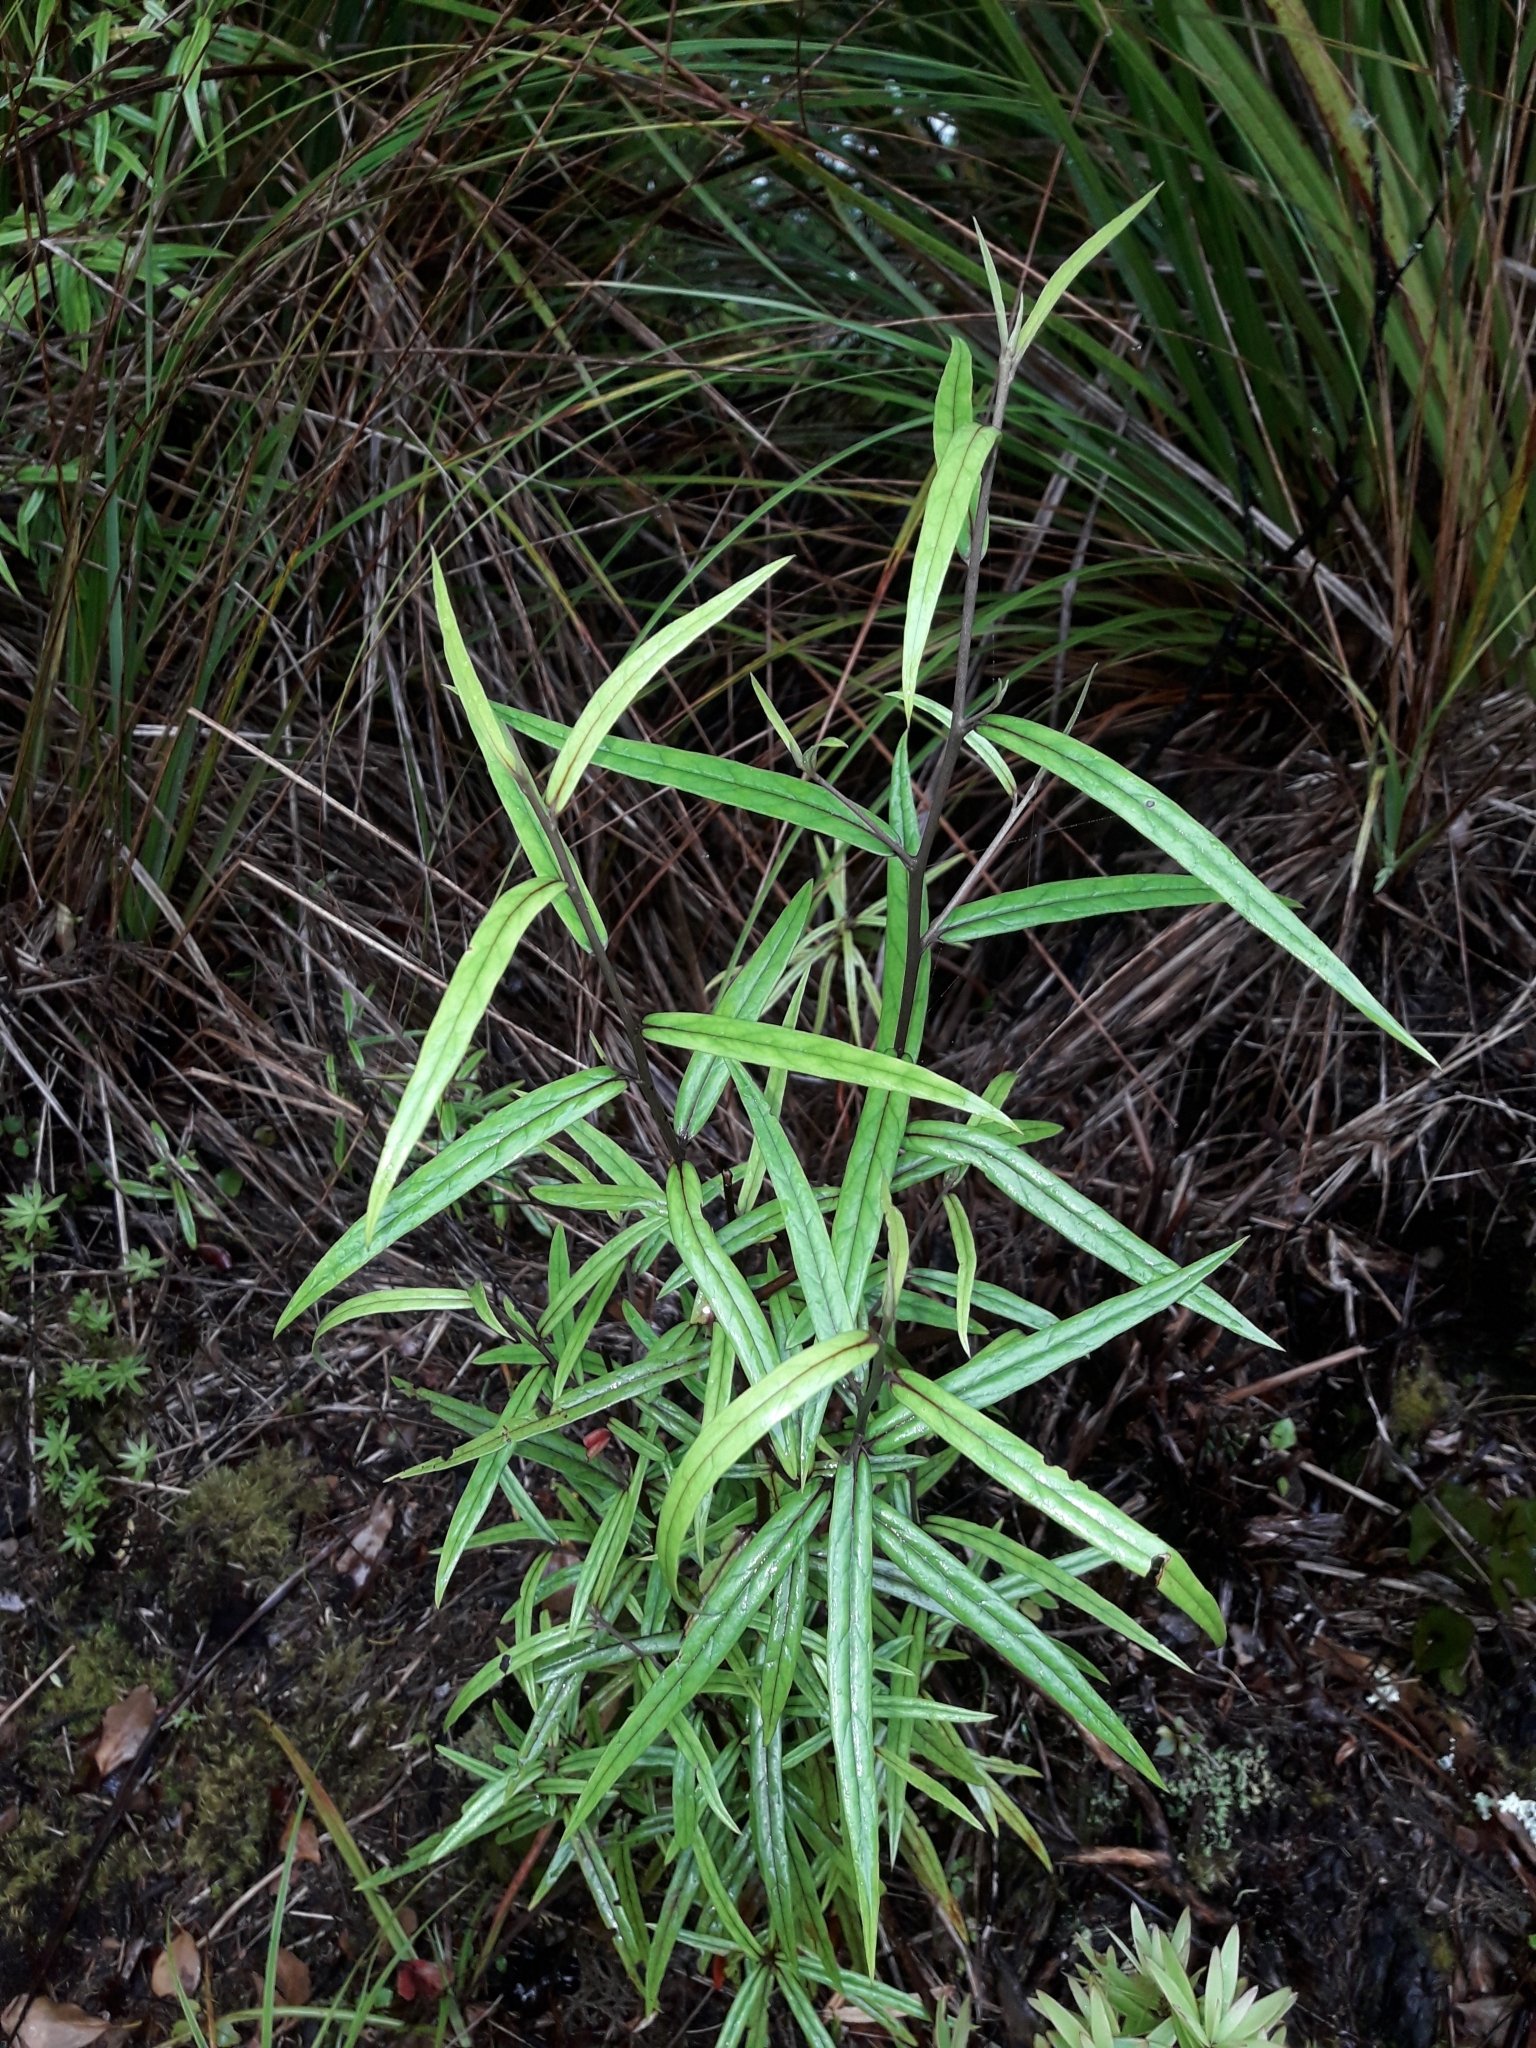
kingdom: Plantae
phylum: Tracheophyta
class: Magnoliopsida
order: Asterales
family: Argophyllaceae
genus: Corokia
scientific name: Corokia buddleioides
